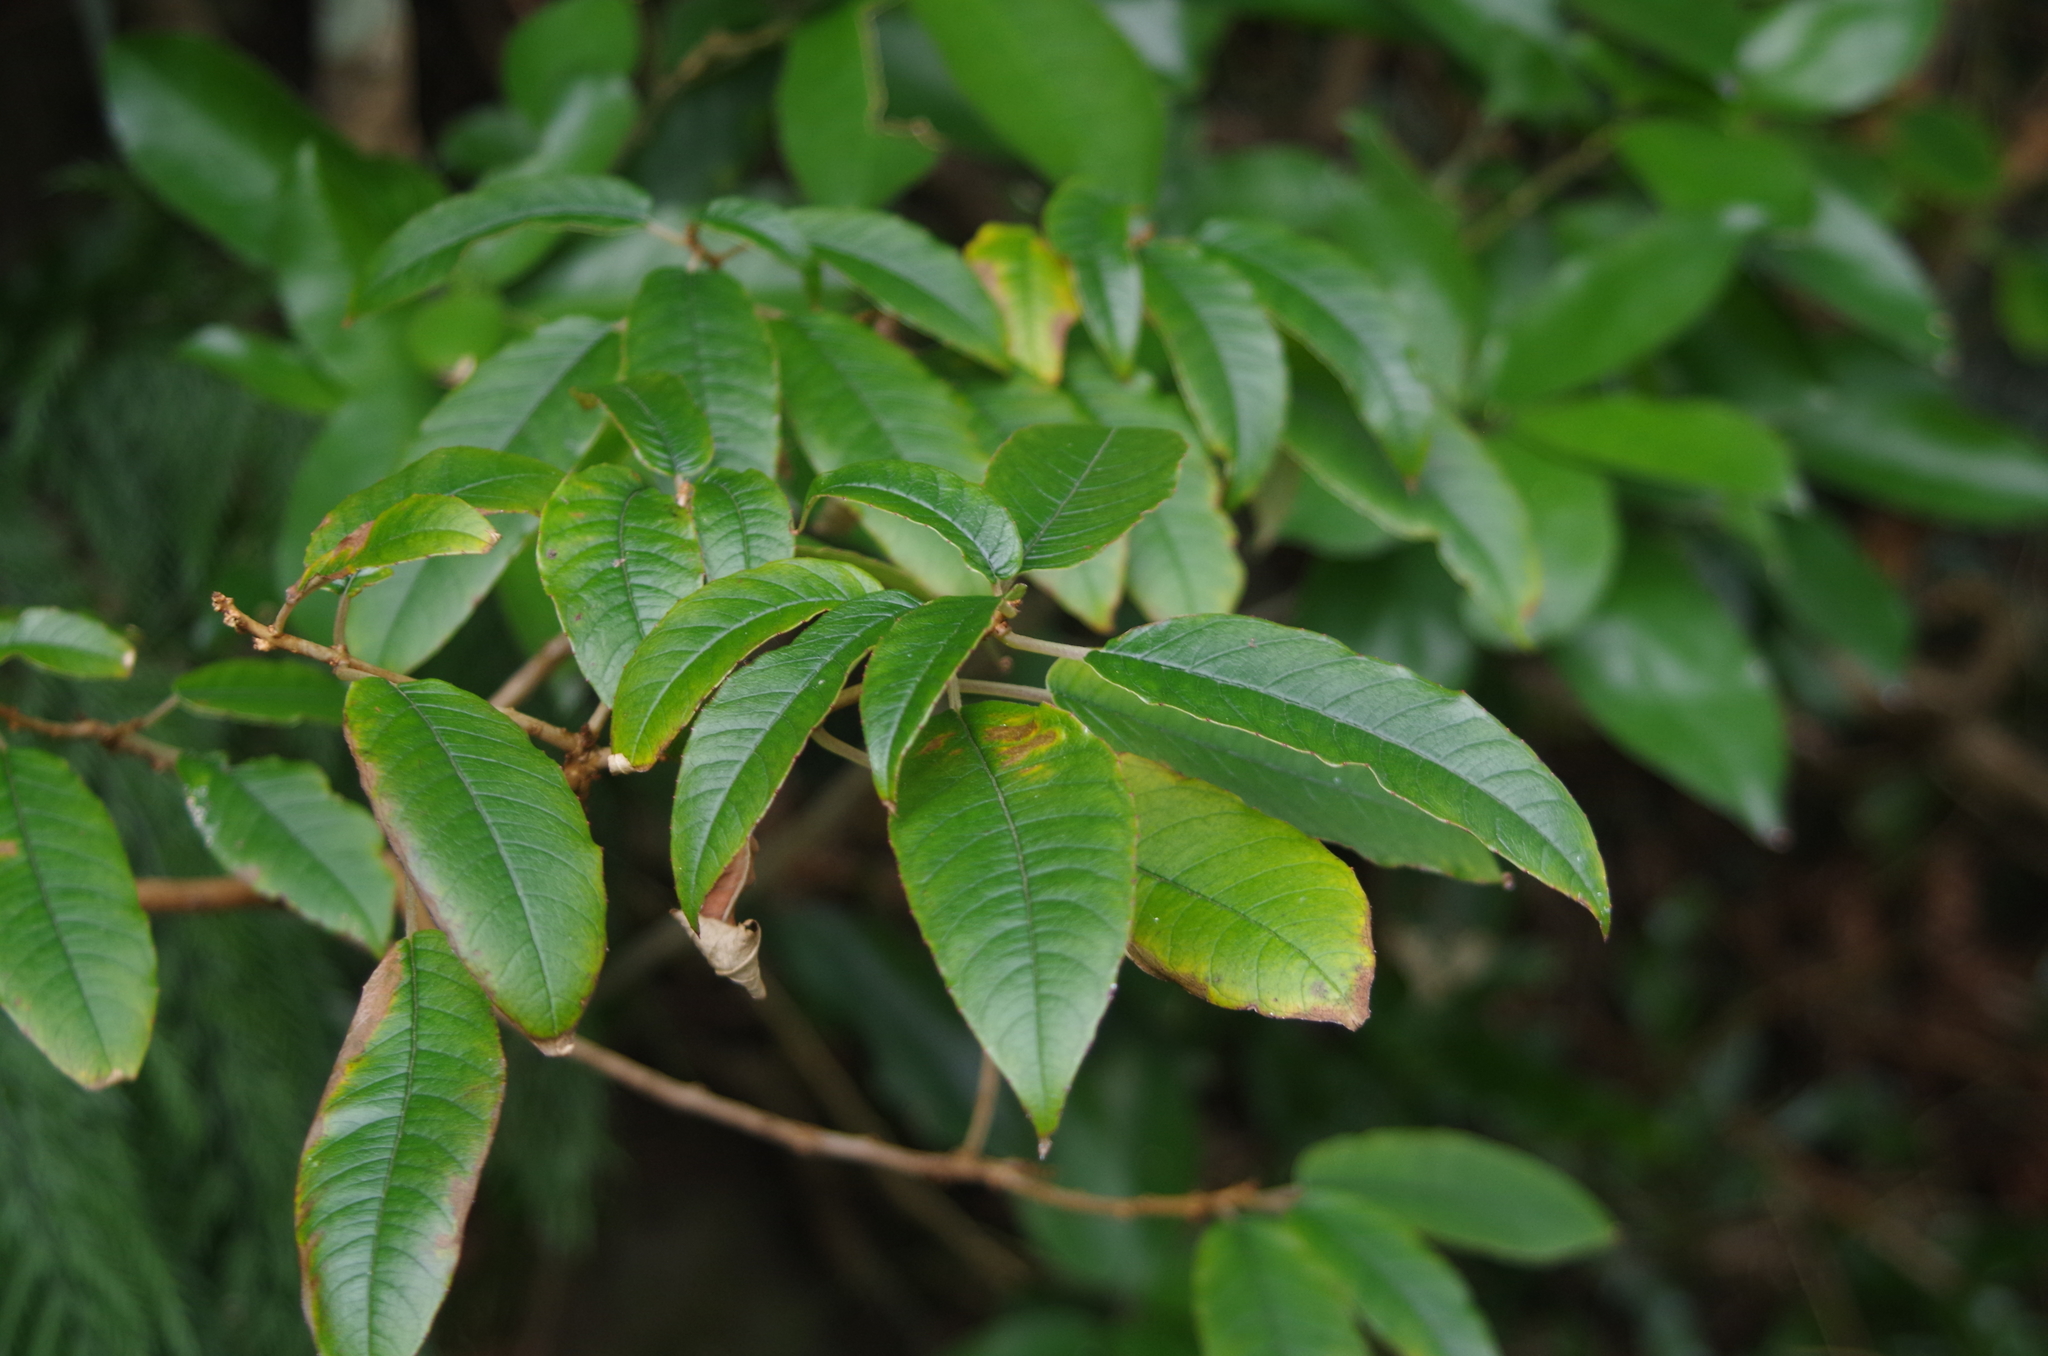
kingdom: Plantae
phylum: Tracheophyta
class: Magnoliopsida
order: Myrtales
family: Onagraceae
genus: Fuchsia
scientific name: Fuchsia excorticata
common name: Tree fuchsia
